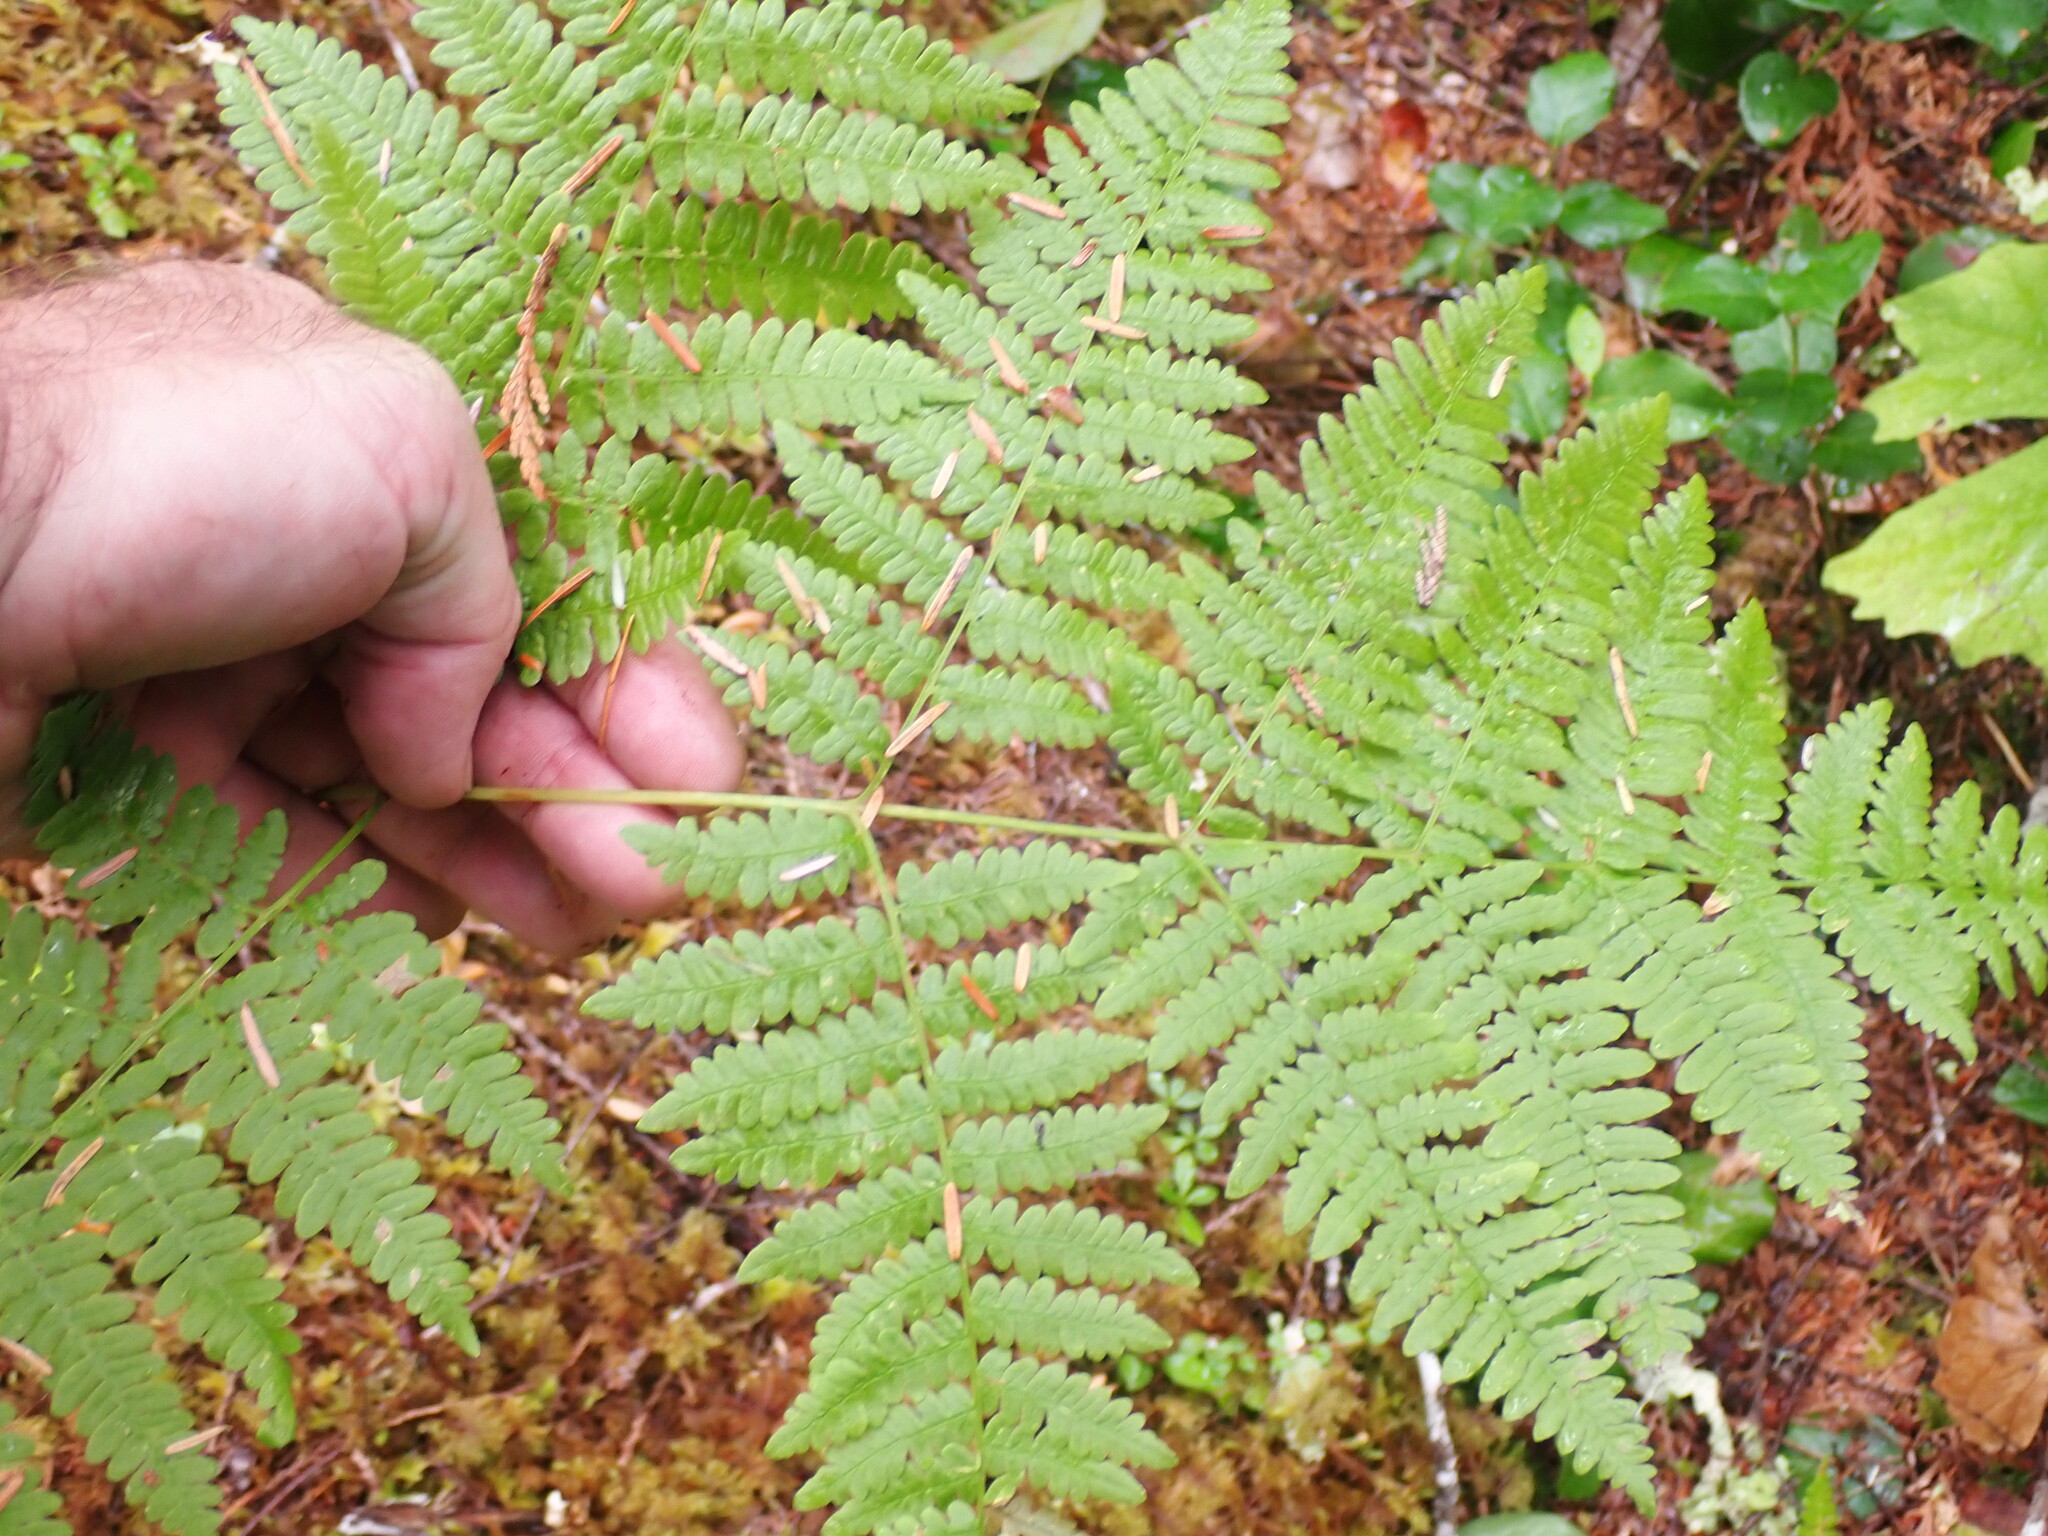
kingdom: Plantae
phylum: Tracheophyta
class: Polypodiopsida
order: Polypodiales
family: Dennstaedtiaceae
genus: Pteridium
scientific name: Pteridium aquilinum
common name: Bracken
